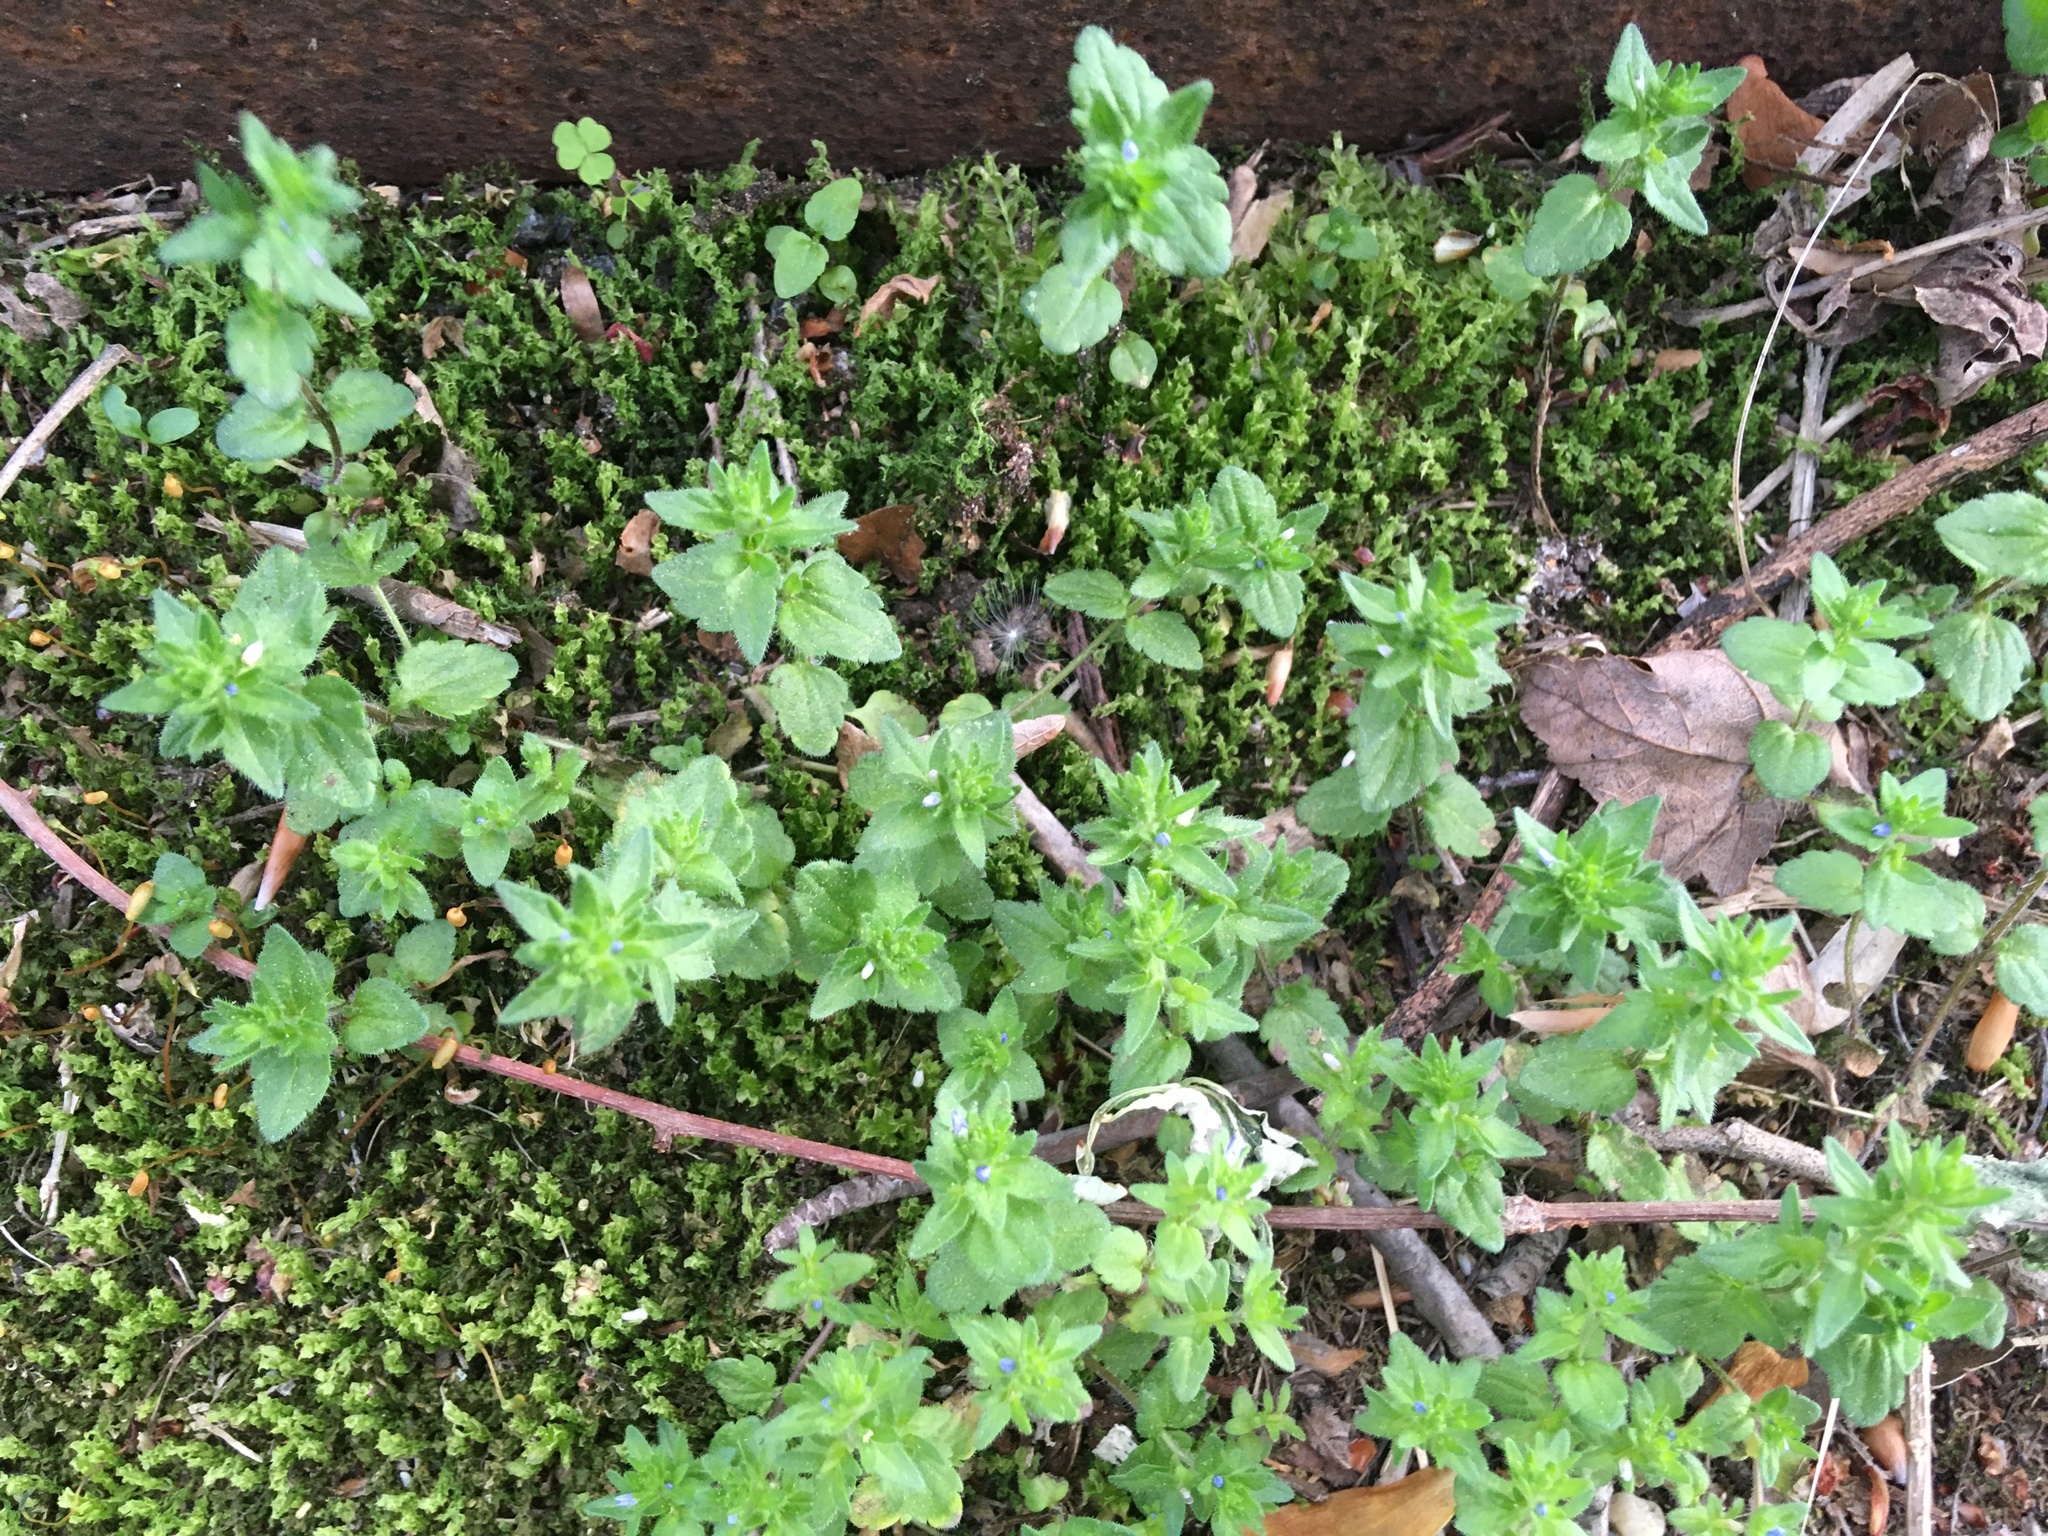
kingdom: Plantae
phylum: Tracheophyta
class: Magnoliopsida
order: Lamiales
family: Plantaginaceae
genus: Veronica
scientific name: Veronica arvensis
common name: Corn speedwell
